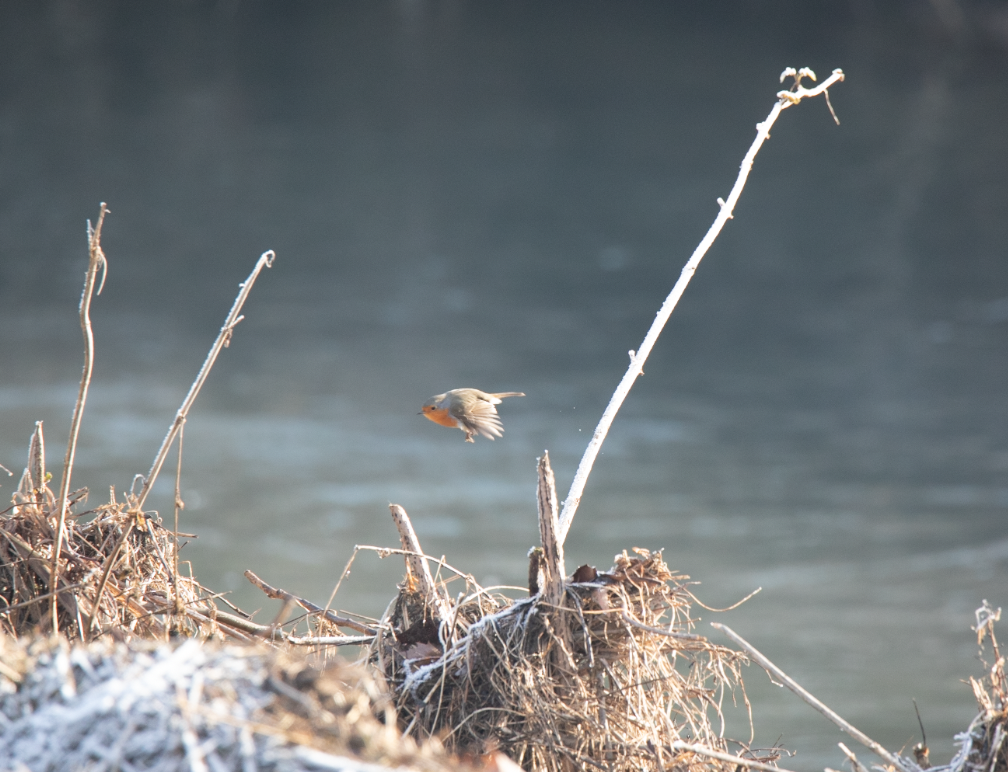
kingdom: Animalia
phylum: Chordata
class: Aves
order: Passeriformes
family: Muscicapidae
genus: Erithacus
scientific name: Erithacus rubecula
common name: European robin
